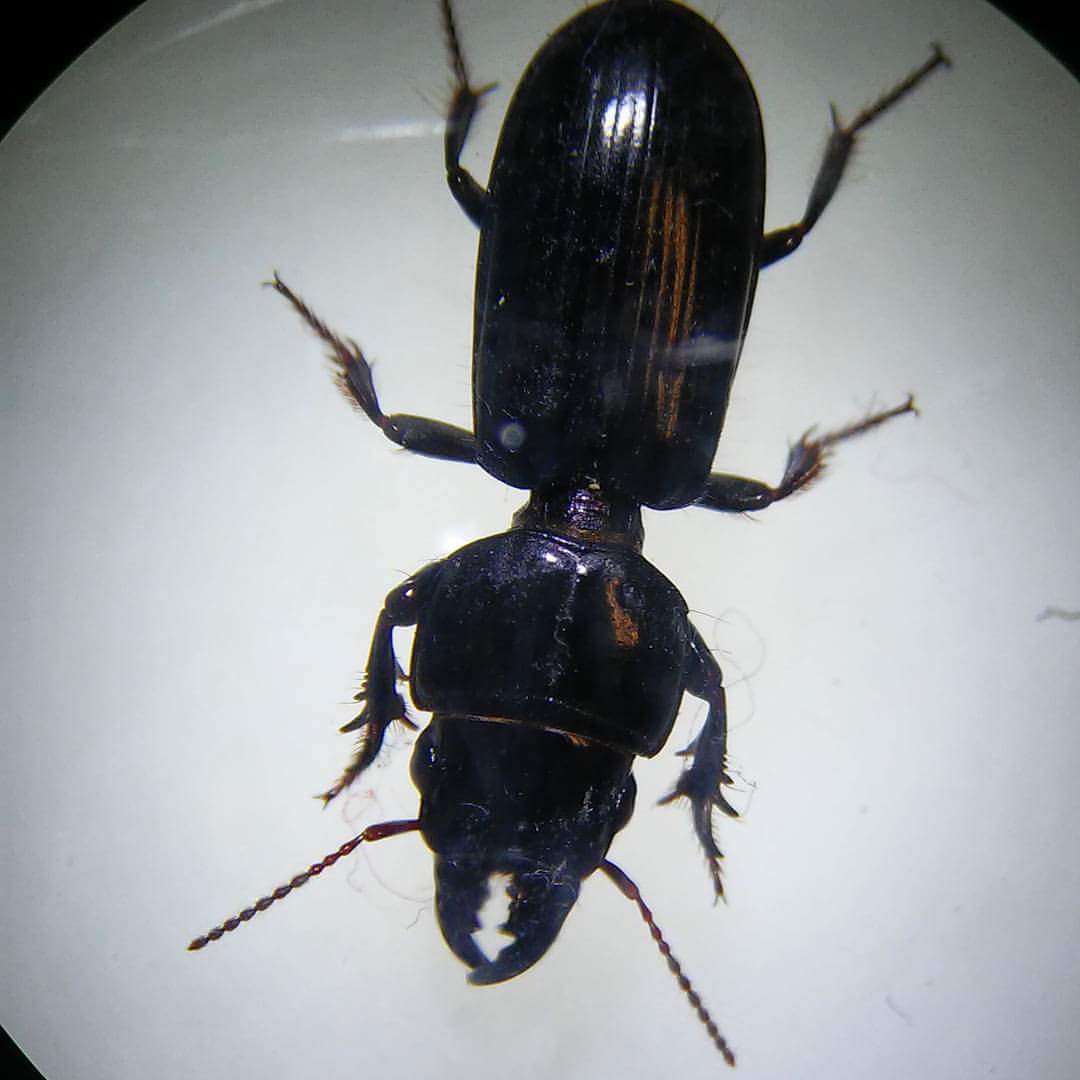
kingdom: Animalia
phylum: Arthropoda
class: Insecta
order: Coleoptera
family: Carabidae
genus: Scarites
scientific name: Scarites subterraneus
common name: Big-headed ground beetle
